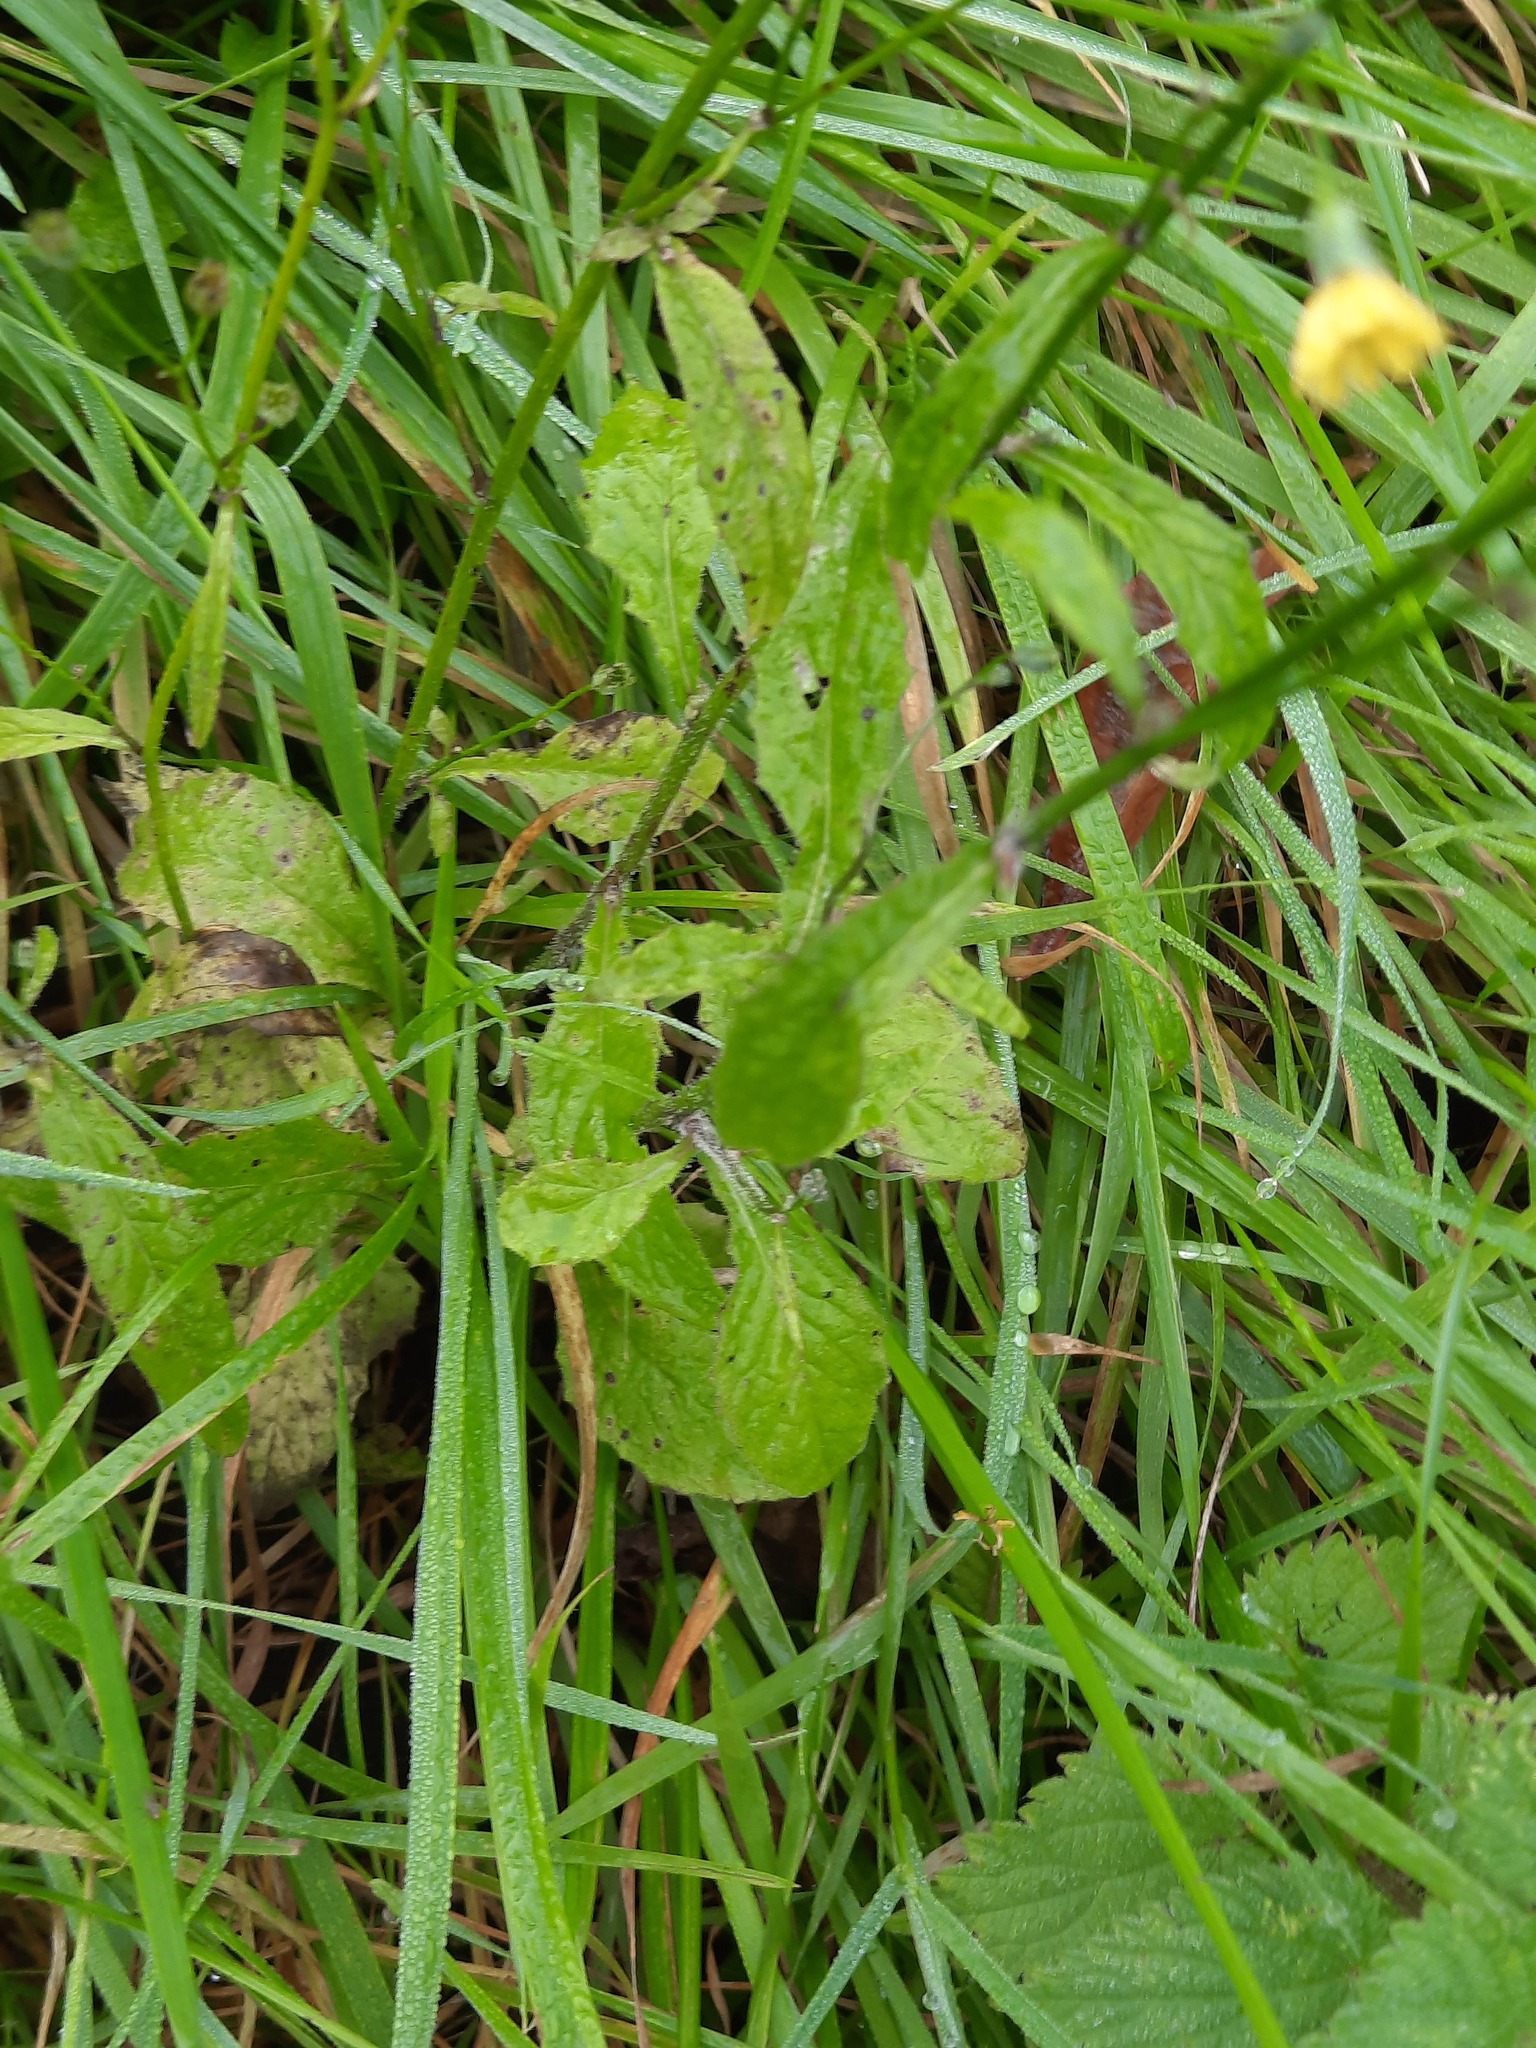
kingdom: Plantae
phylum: Tracheophyta
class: Magnoliopsida
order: Asterales
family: Asteraceae
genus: Lapsana
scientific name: Lapsana communis
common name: Nipplewort
